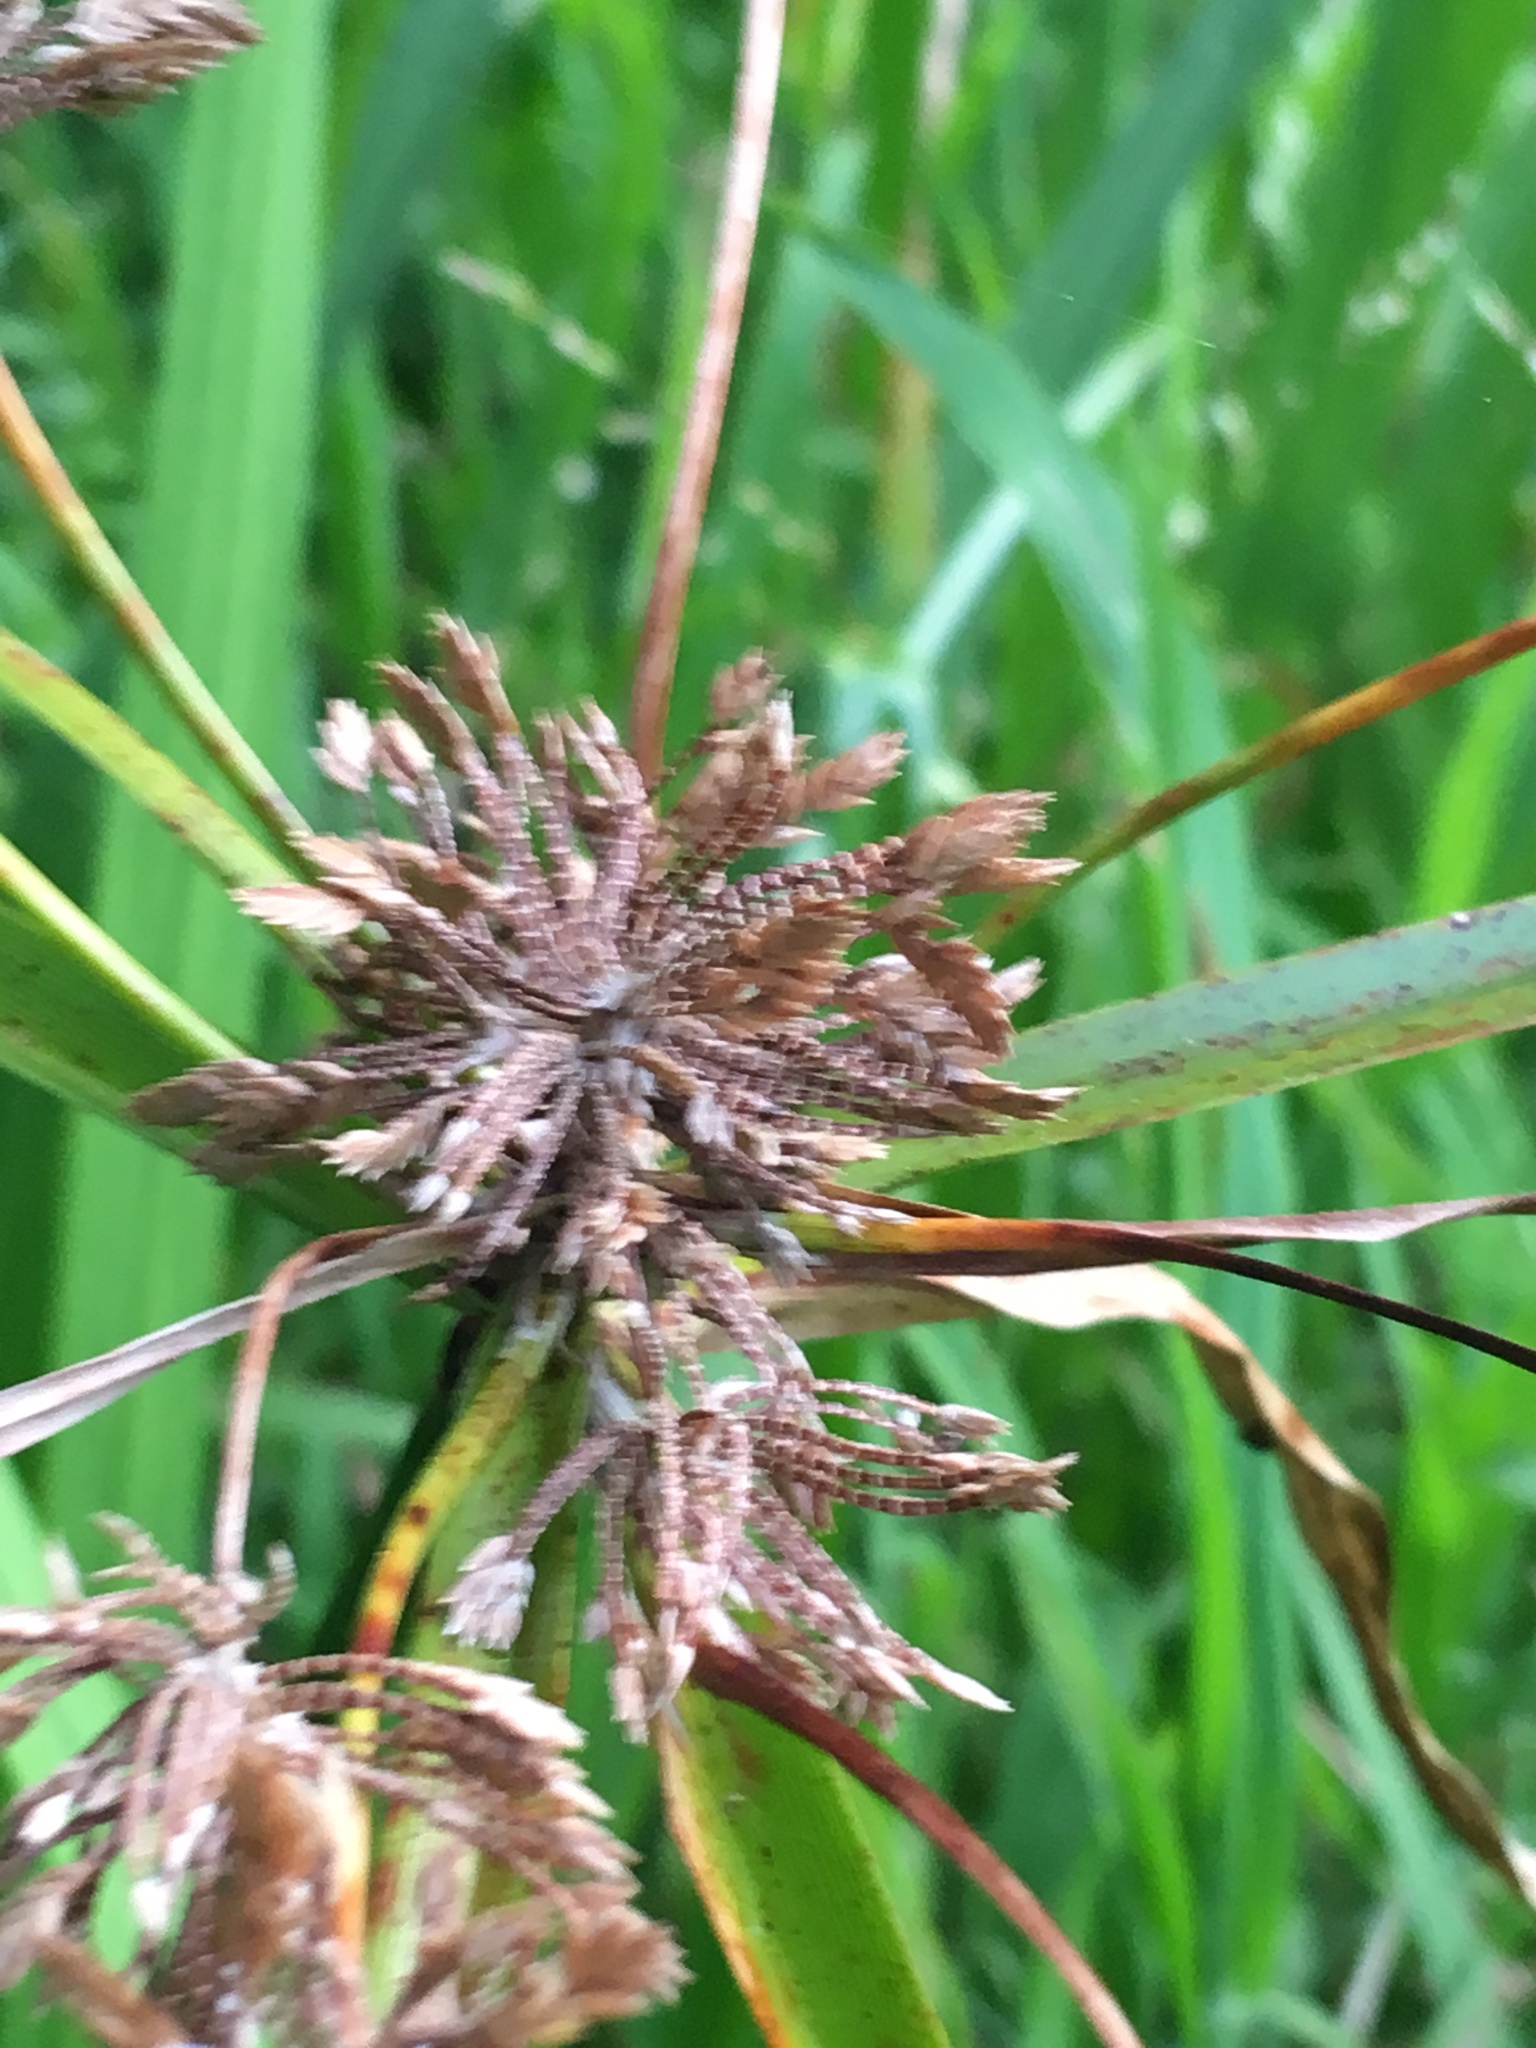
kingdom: Plantae
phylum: Tracheophyta
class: Liliopsida
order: Poales
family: Cyperaceae
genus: Cyperus
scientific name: Cyperus eragrostis
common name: Tall flatsedge
